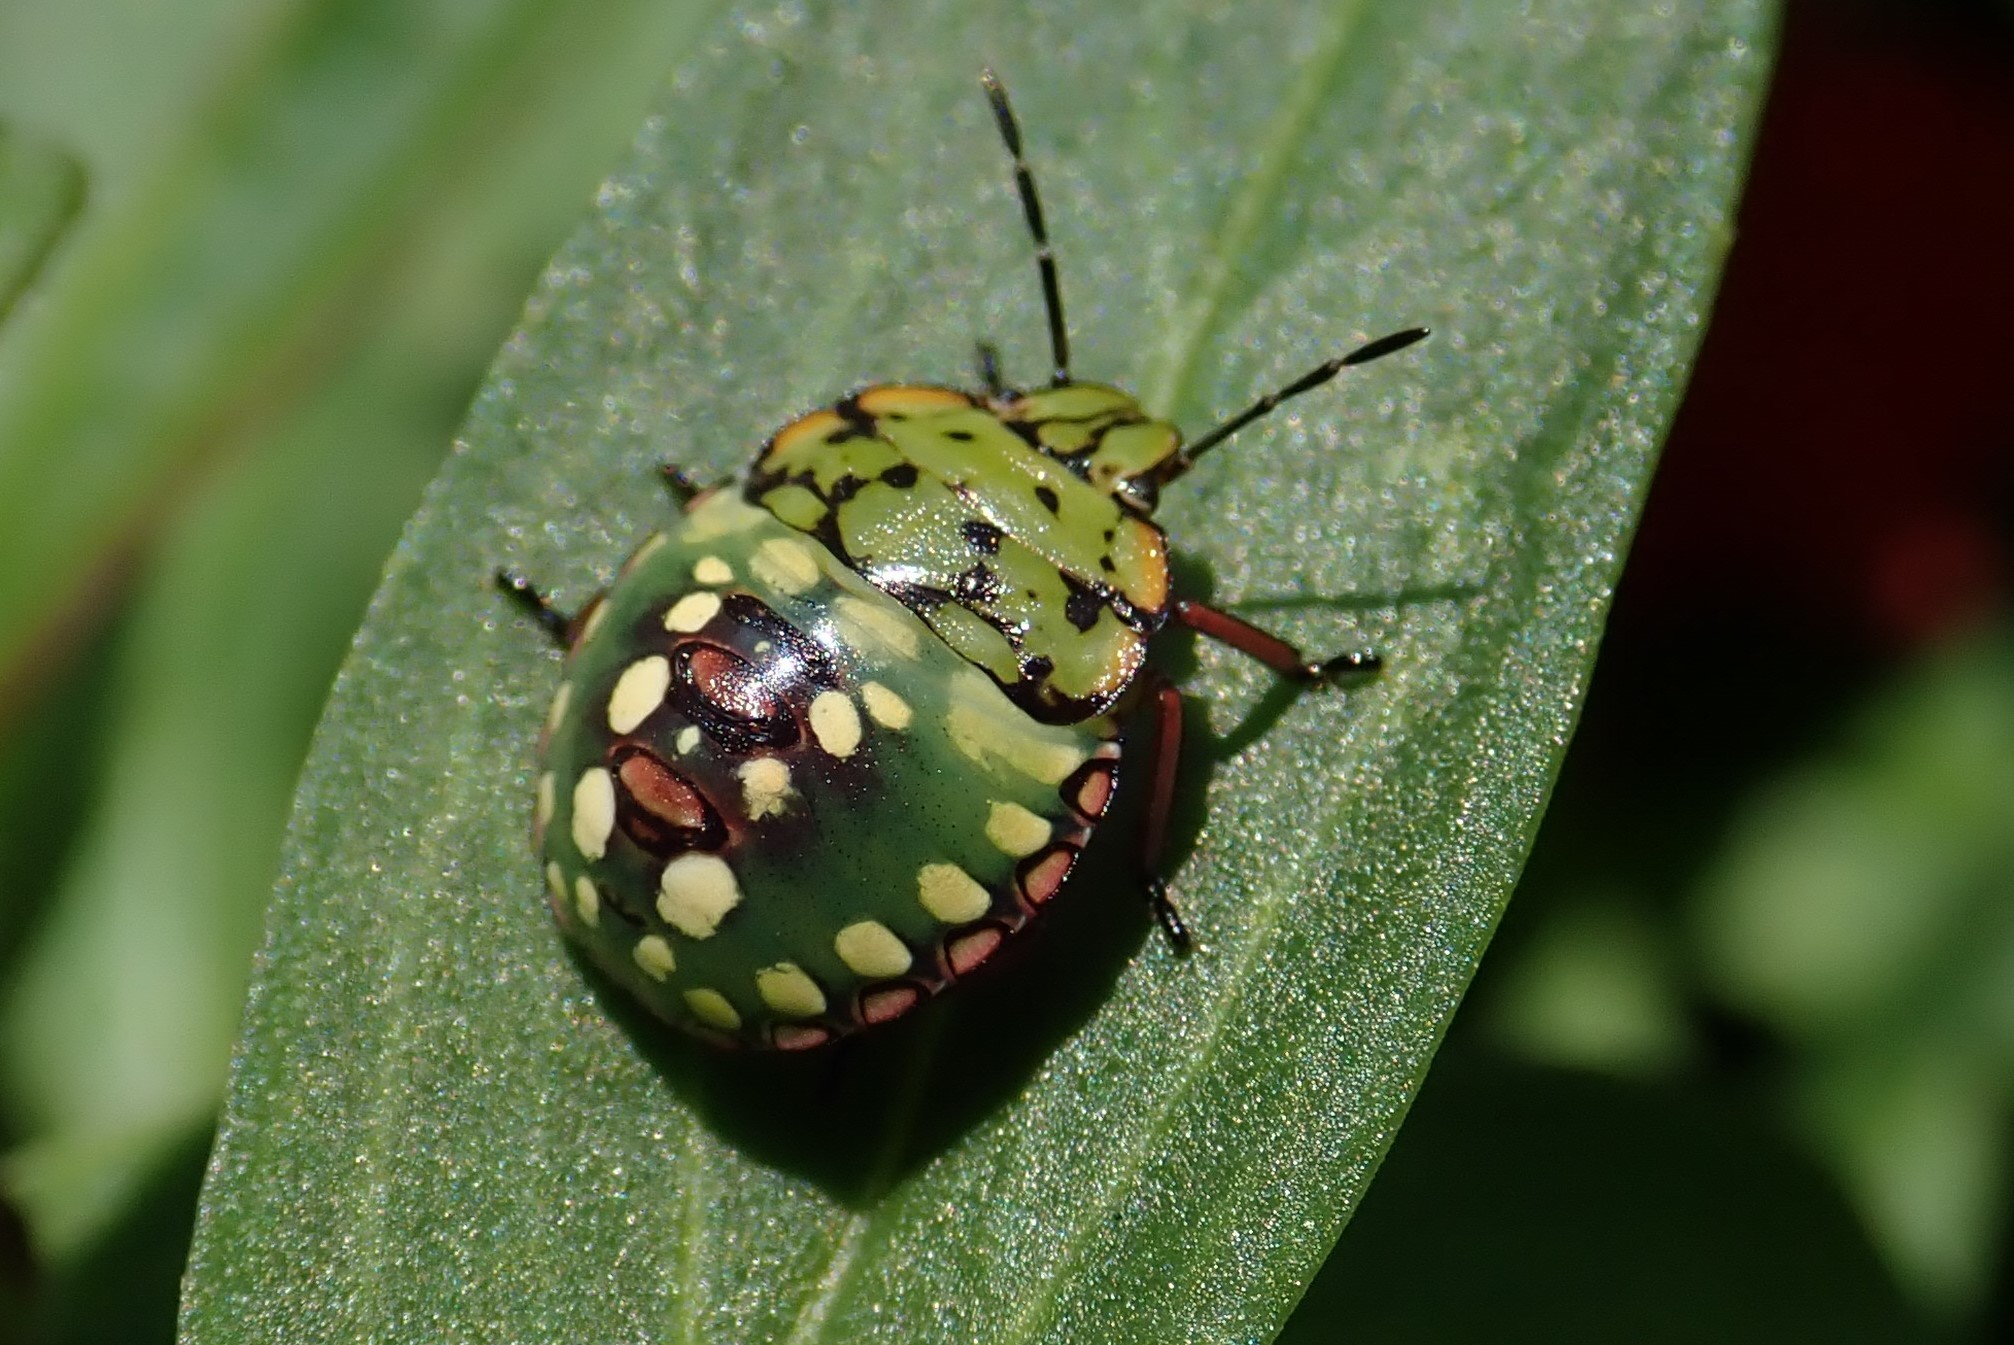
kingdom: Animalia
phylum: Arthropoda
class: Insecta
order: Hemiptera
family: Pentatomidae
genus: Nezara
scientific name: Nezara viridula
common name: Southern green stink bug
